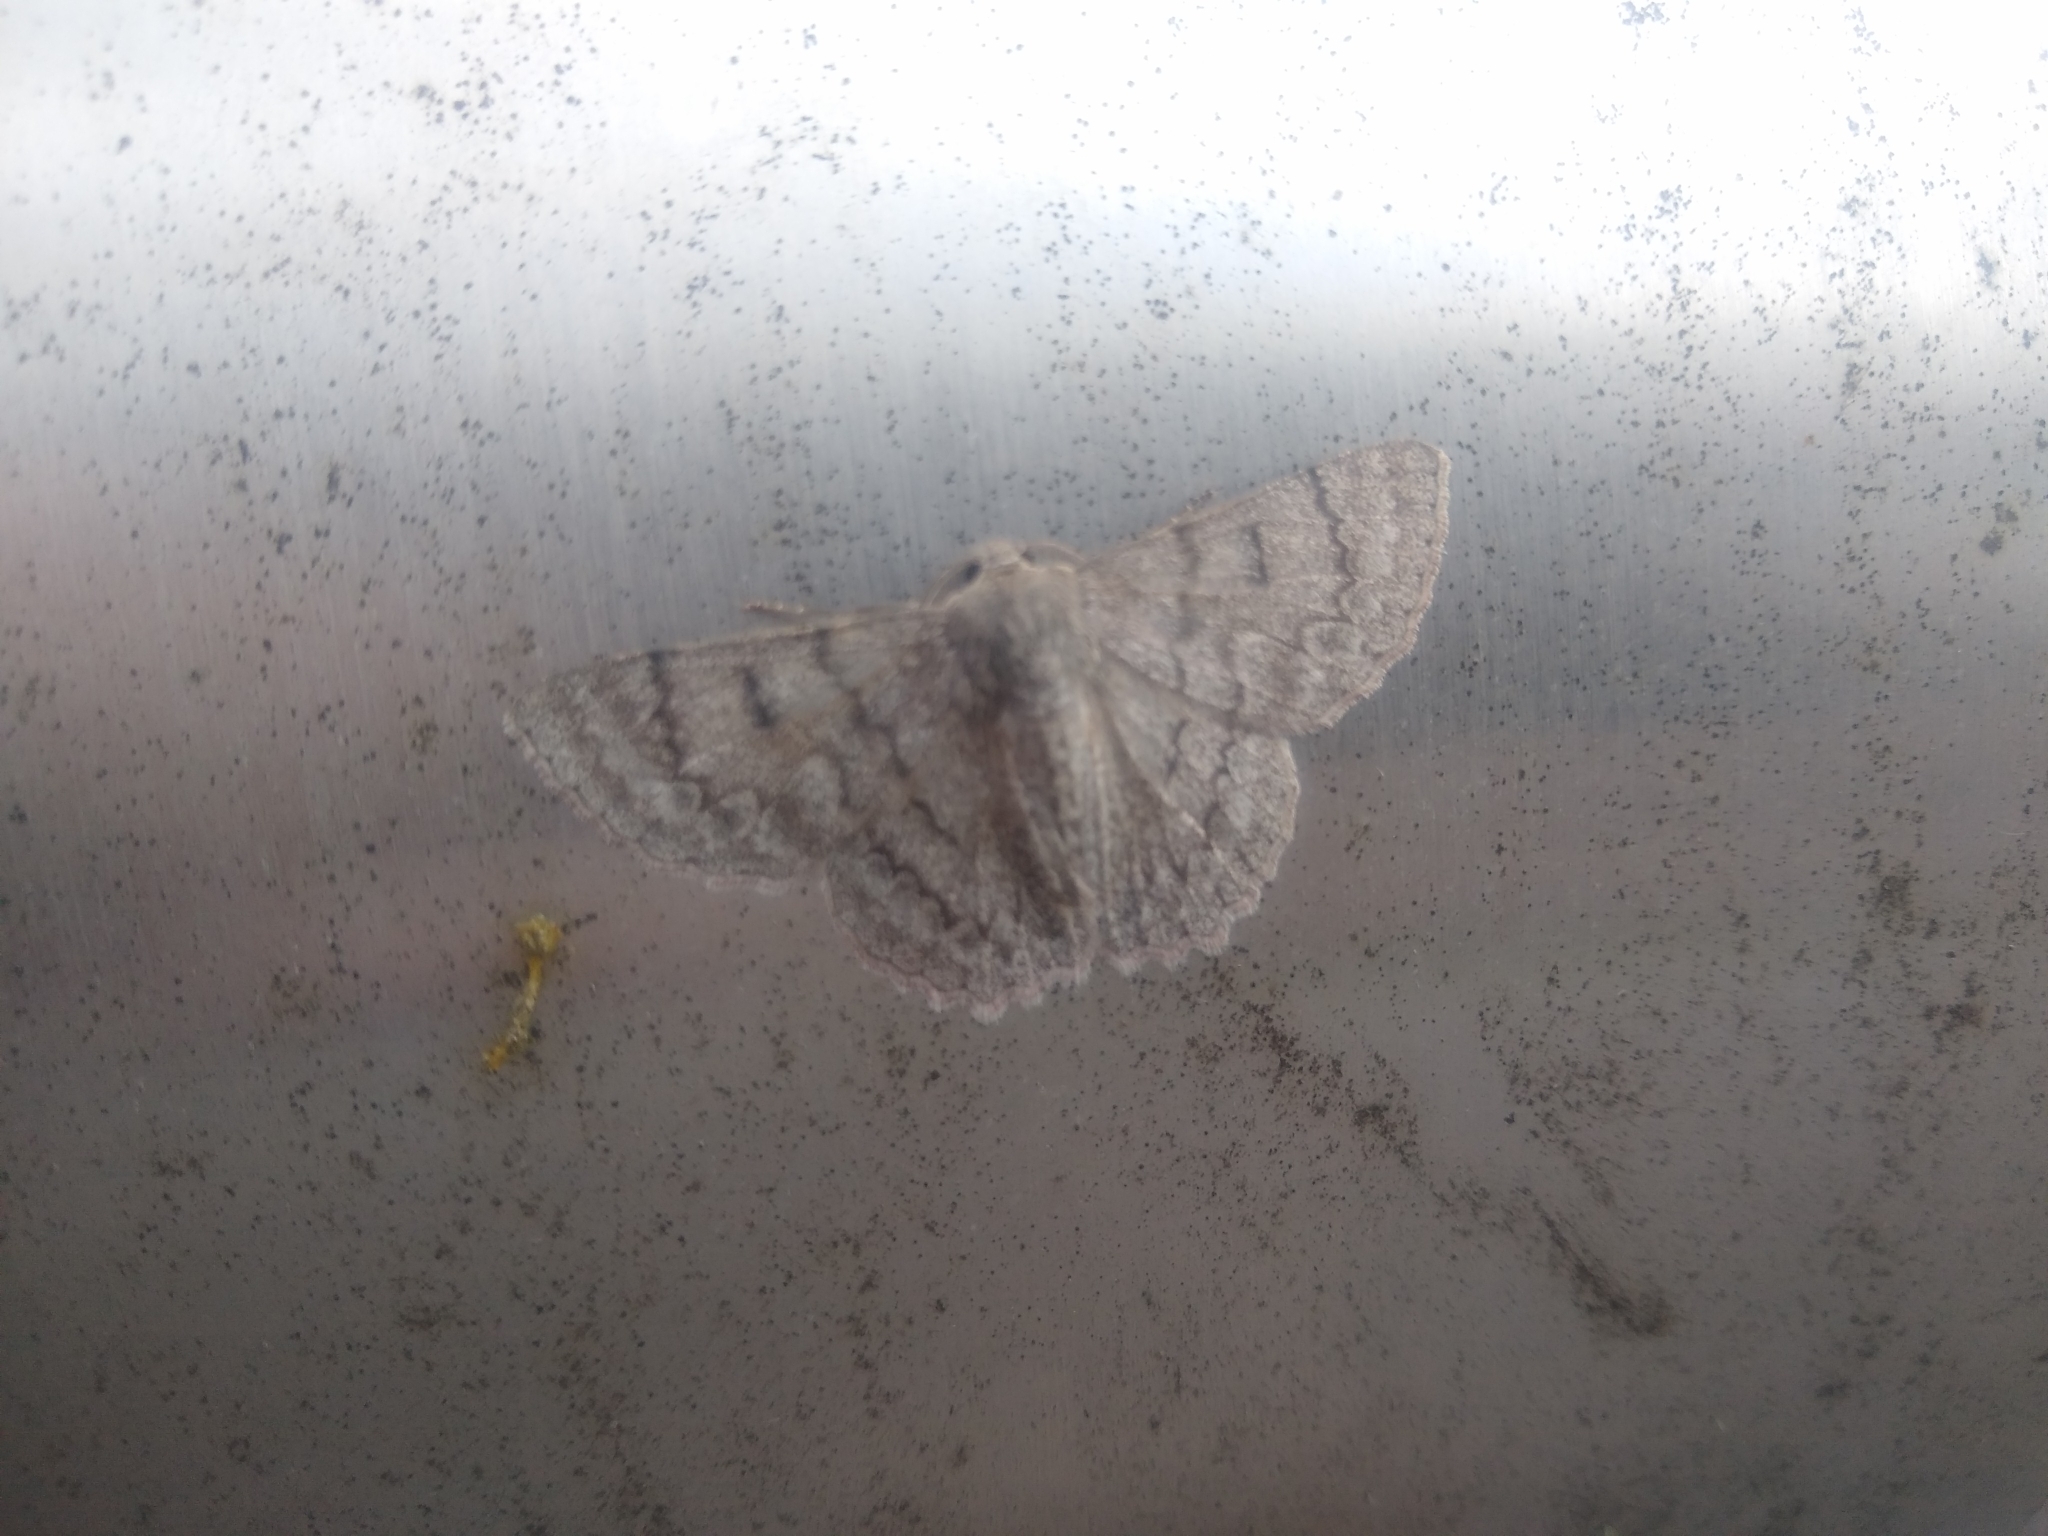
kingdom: Animalia
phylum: Arthropoda
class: Insecta
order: Lepidoptera
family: Geometridae
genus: Crypsiphona
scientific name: Crypsiphona ocultaria
